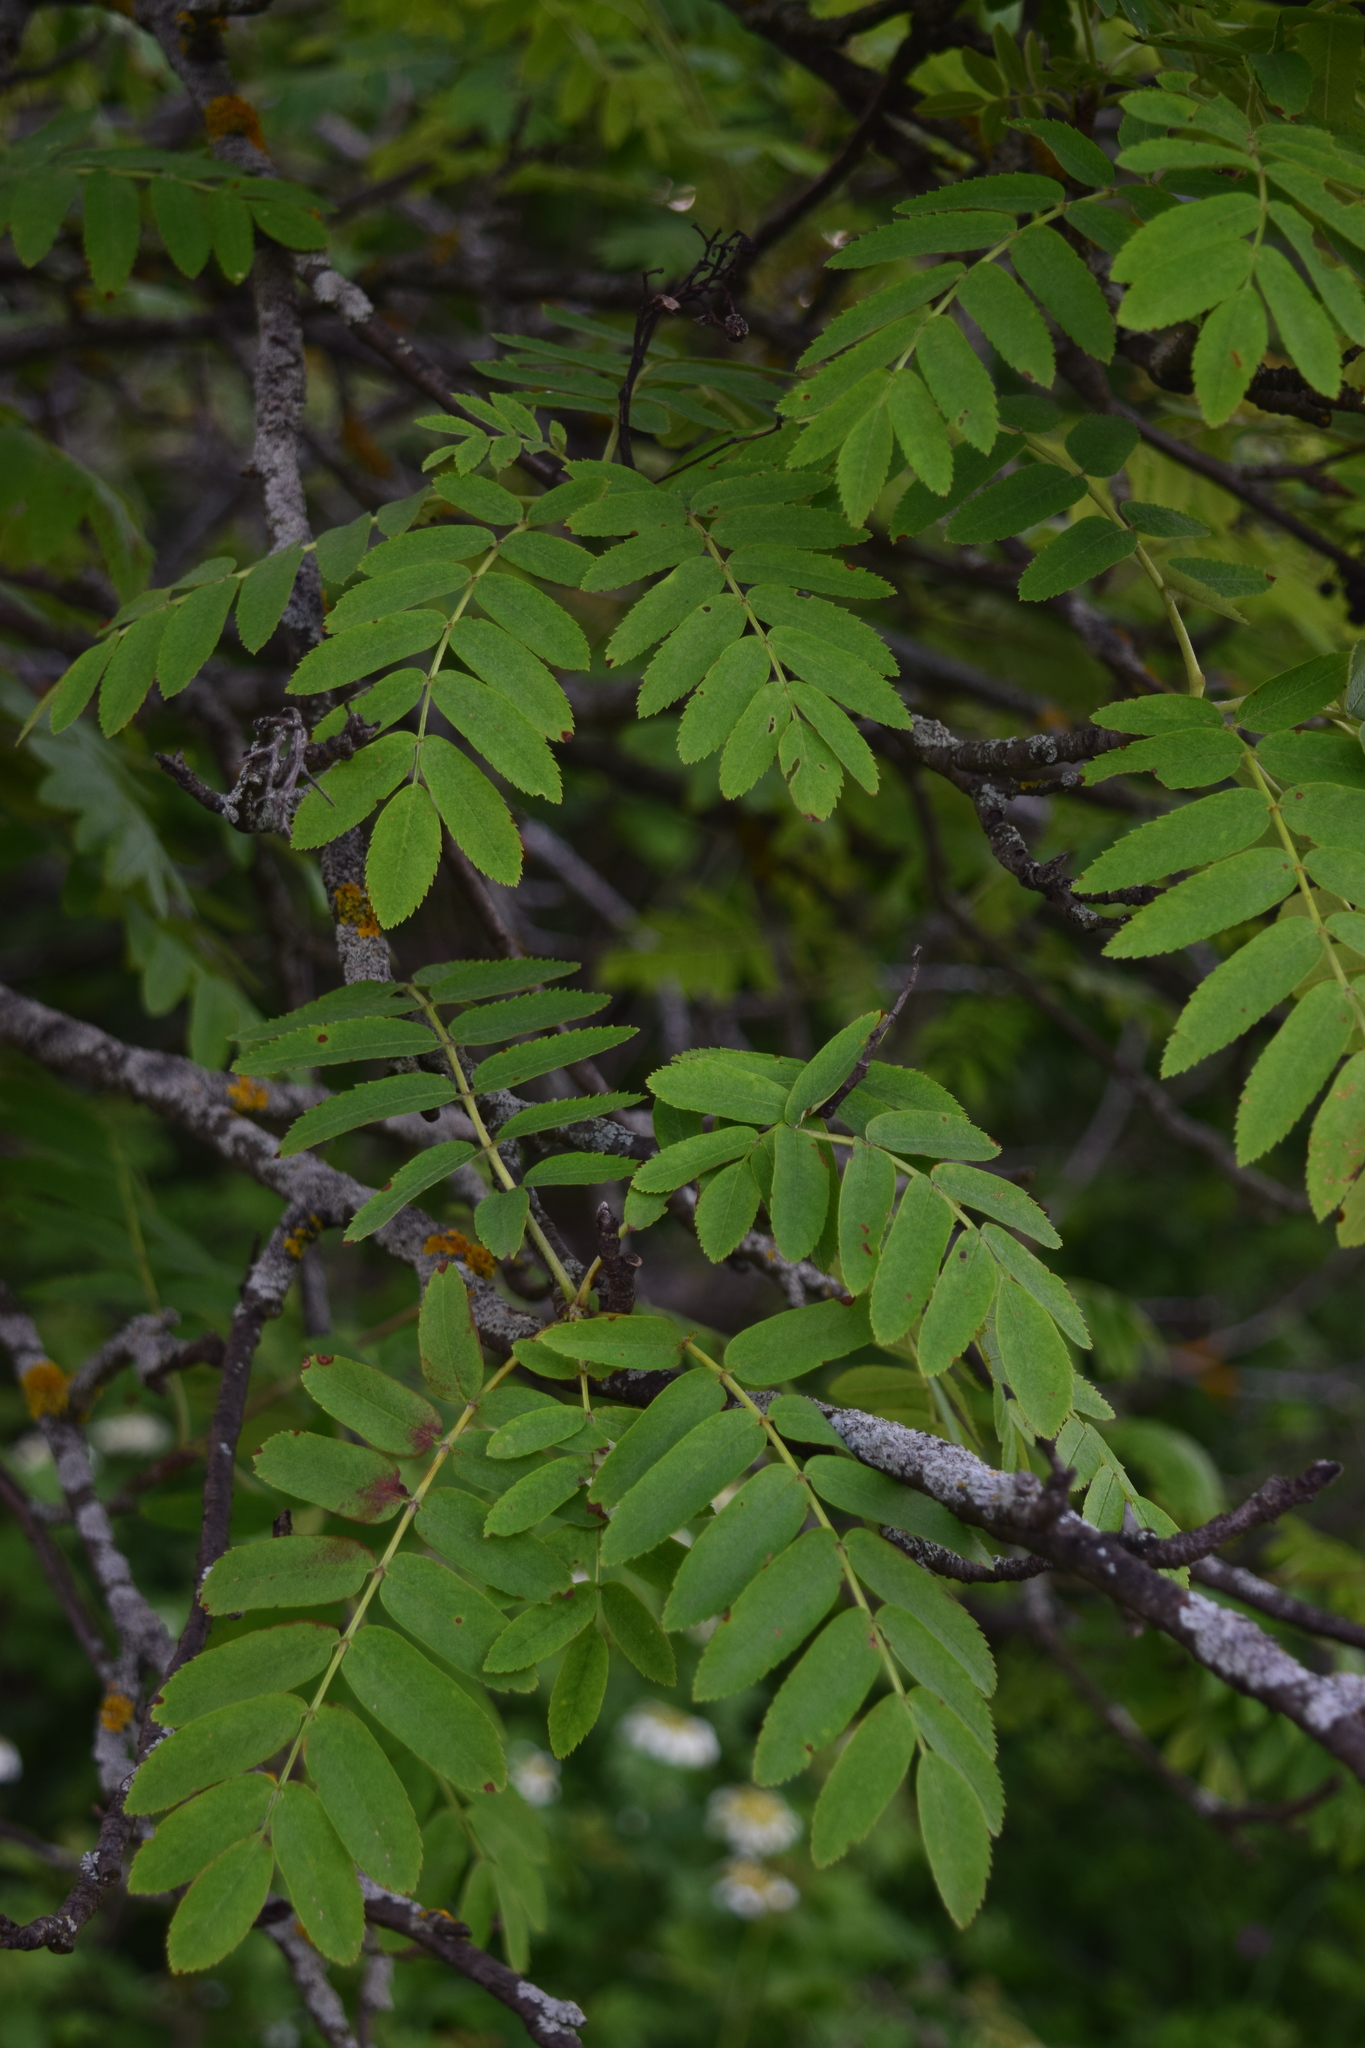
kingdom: Plantae
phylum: Tracheophyta
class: Magnoliopsida
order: Rosales
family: Rosaceae
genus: Sorbus
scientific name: Sorbus aucuparia
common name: Rowan
